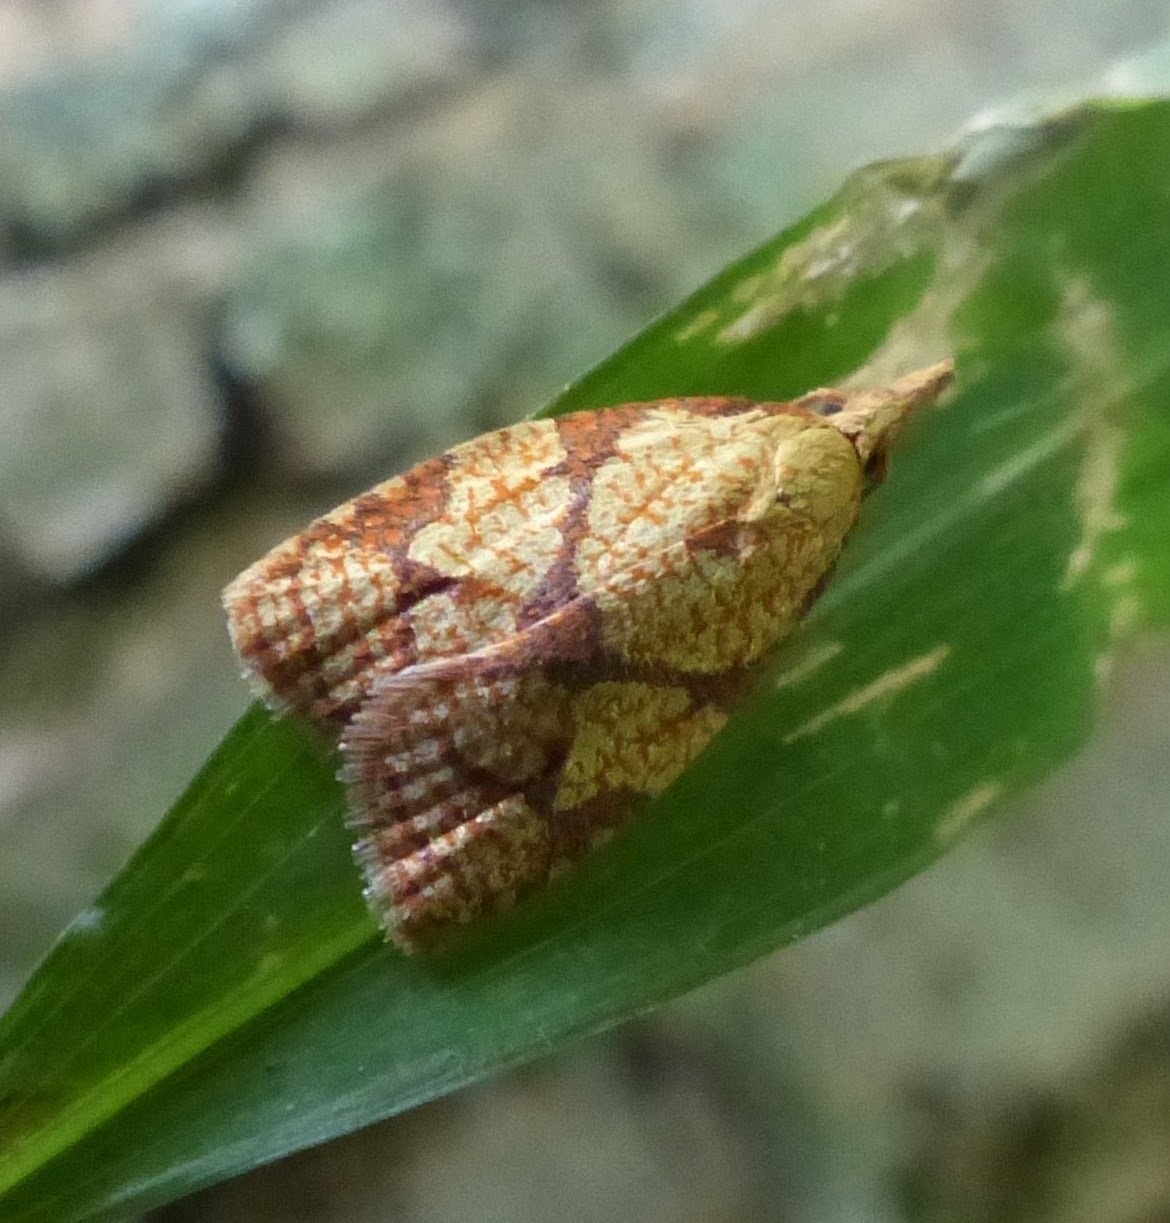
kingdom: Animalia
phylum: Arthropoda
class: Insecta
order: Lepidoptera
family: Tortricidae
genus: Cenopis
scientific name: Cenopis reticulatana
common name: Reticulated fruitworm moth
